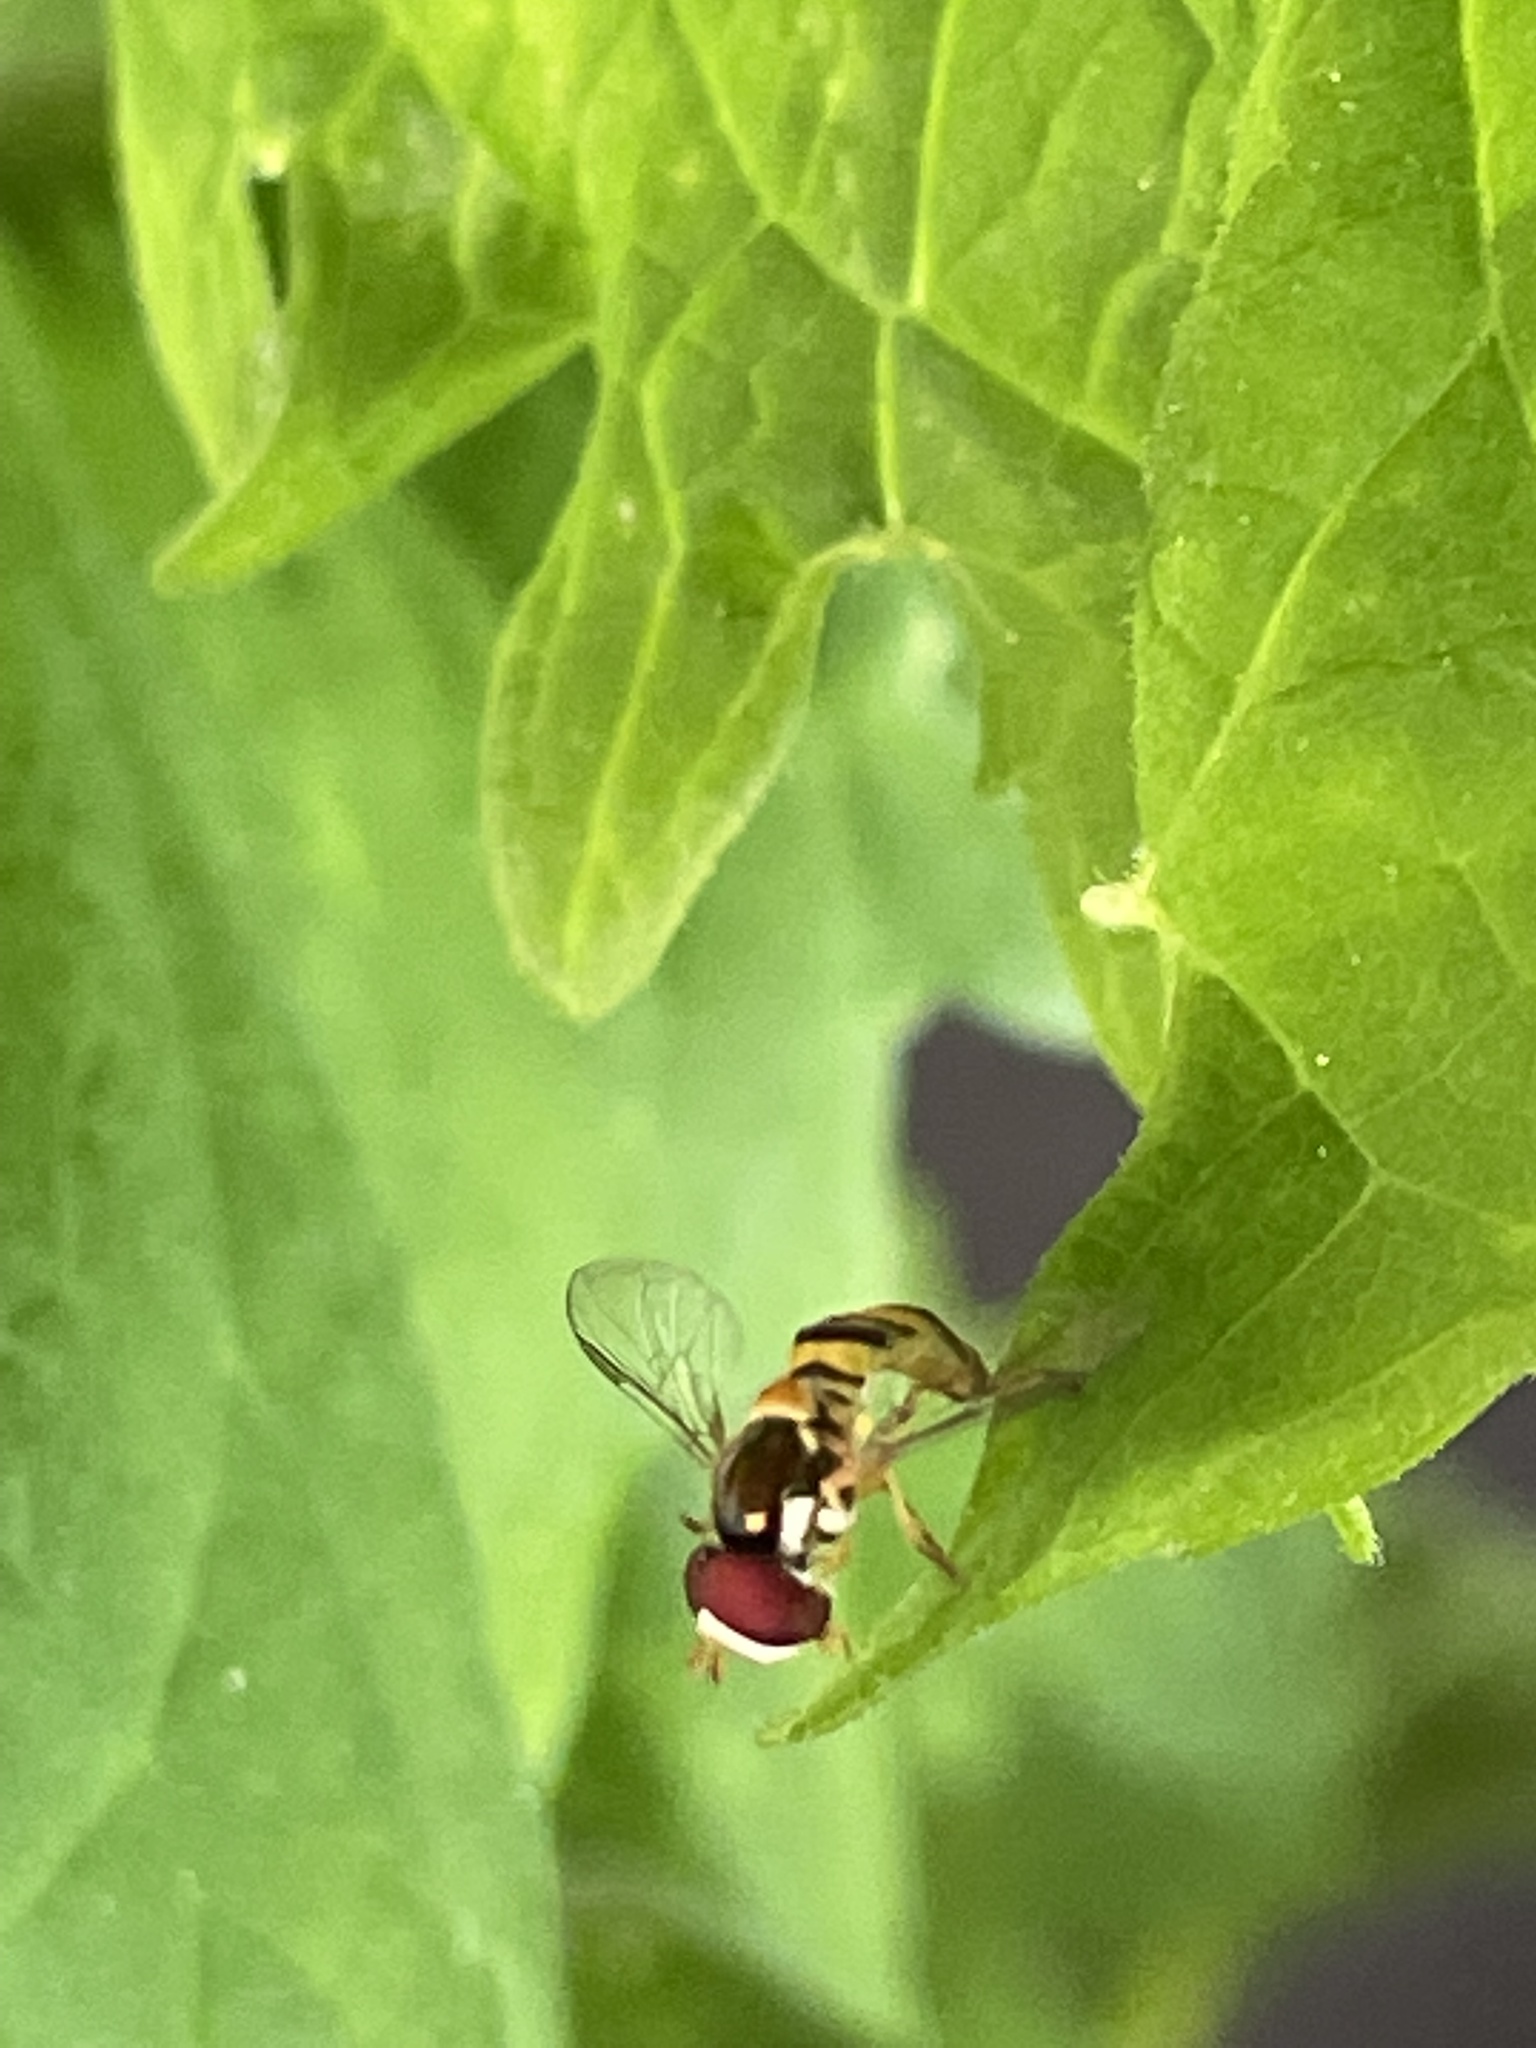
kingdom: Animalia
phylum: Arthropoda
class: Insecta
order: Diptera
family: Syrphidae
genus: Allograpta
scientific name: Allograpta obliqua
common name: Common oblique syrphid
